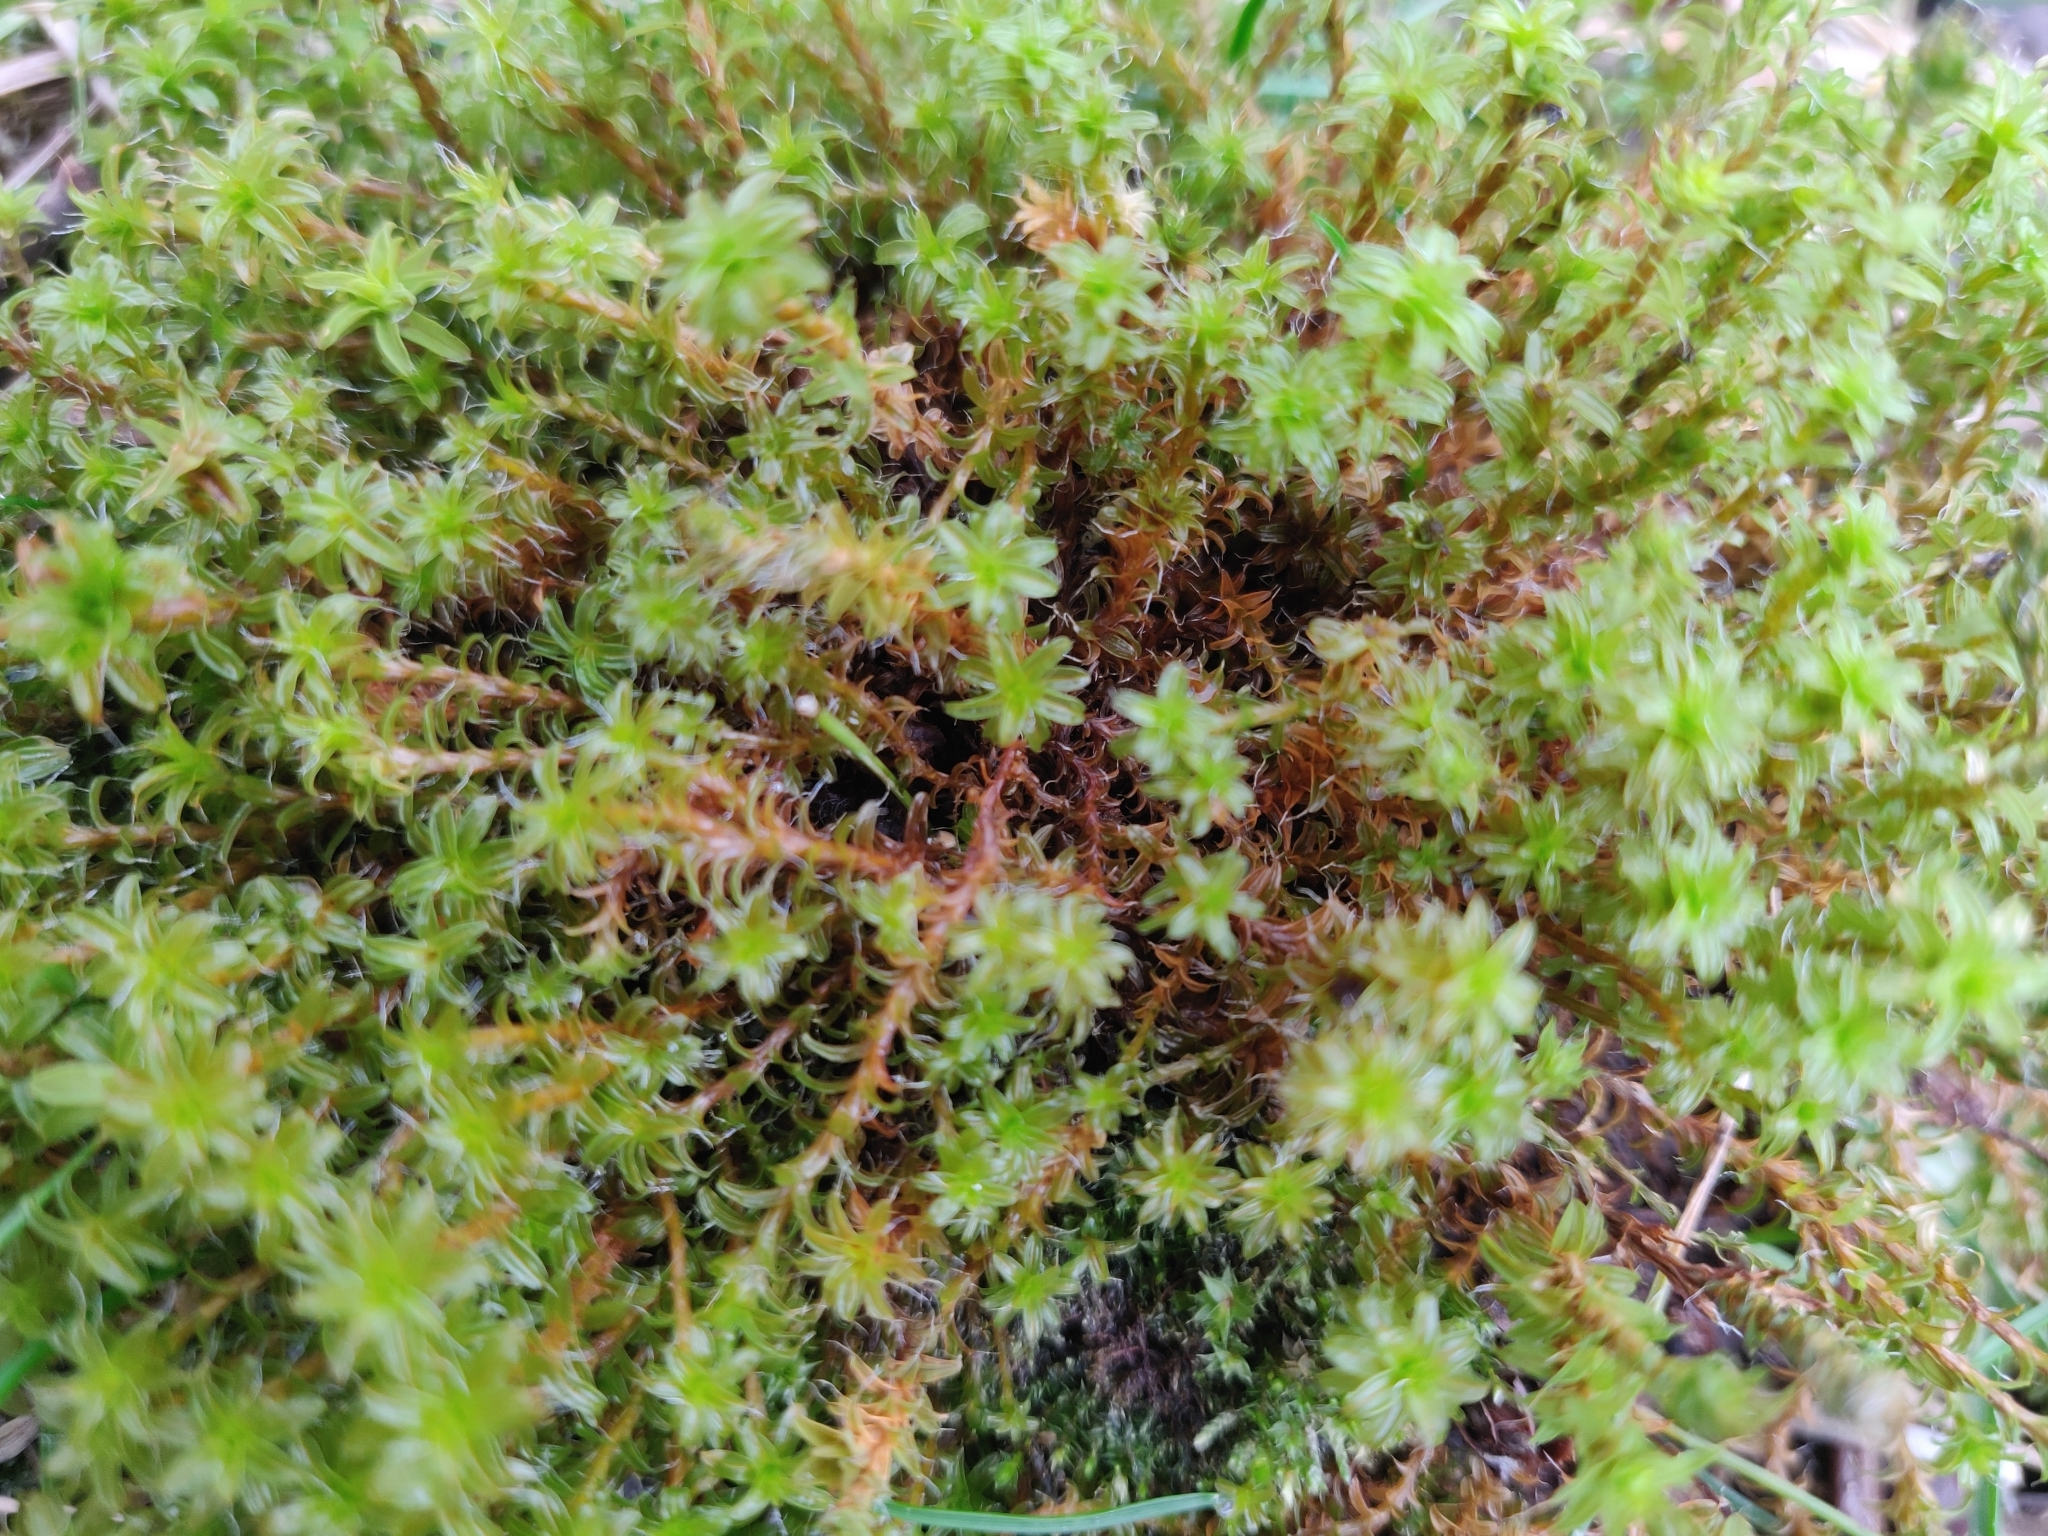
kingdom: Plantae
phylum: Bryophyta
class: Bryopsida
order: Pottiales
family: Pottiaceae
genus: Syntrichia
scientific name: Syntrichia ruralis
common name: Sidewalk screw moss
